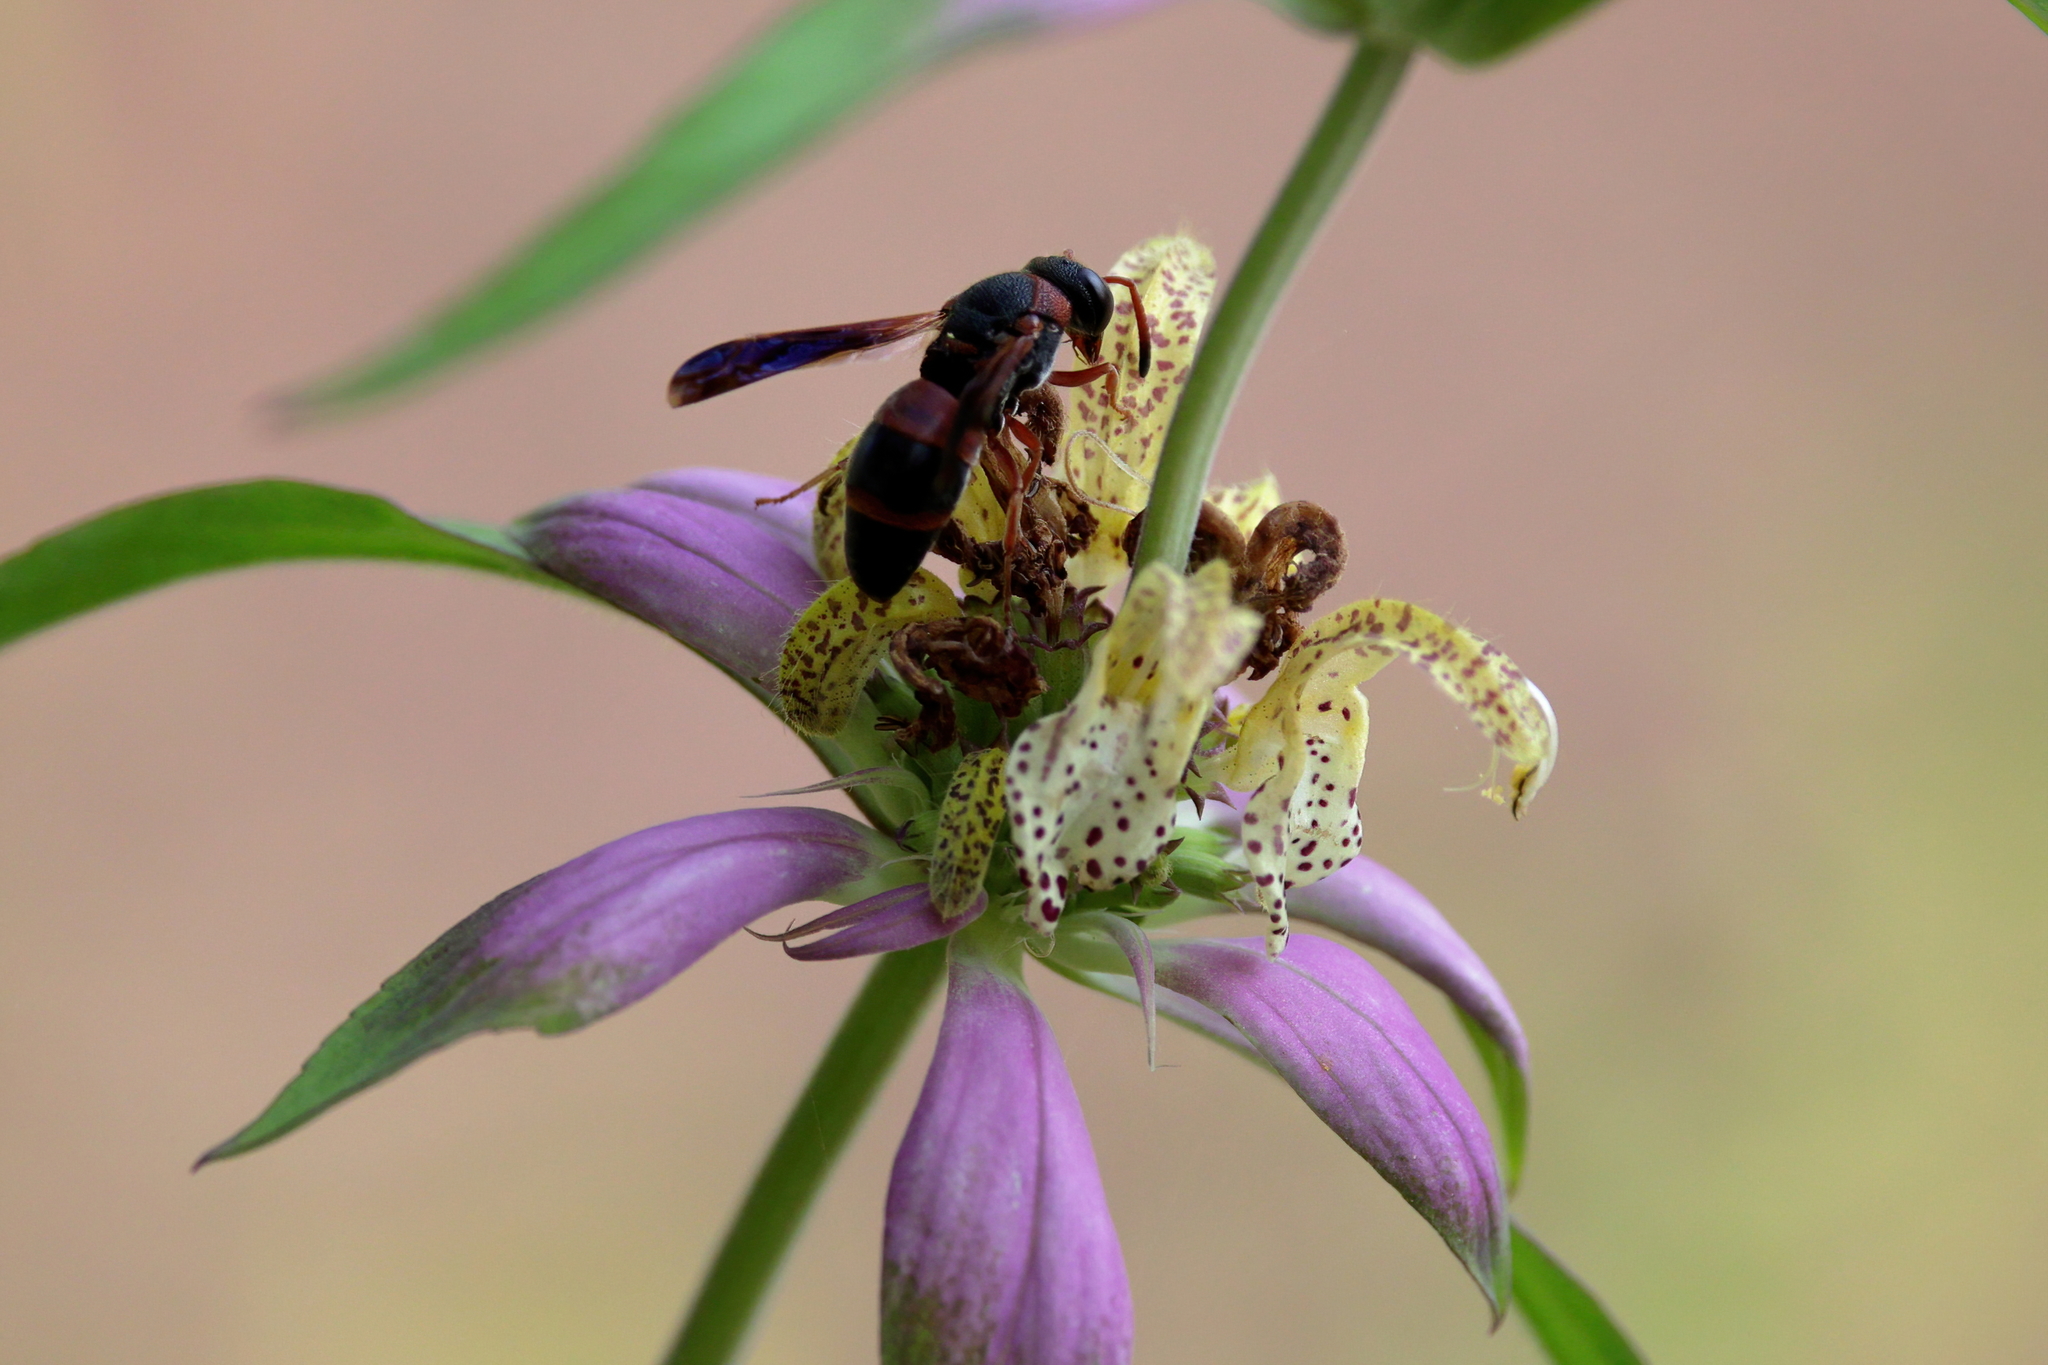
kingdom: Animalia
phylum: Arthropoda
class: Insecta
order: Hymenoptera
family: Eumenidae
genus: Pachodynerus
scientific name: Pachodynerus erynnis
